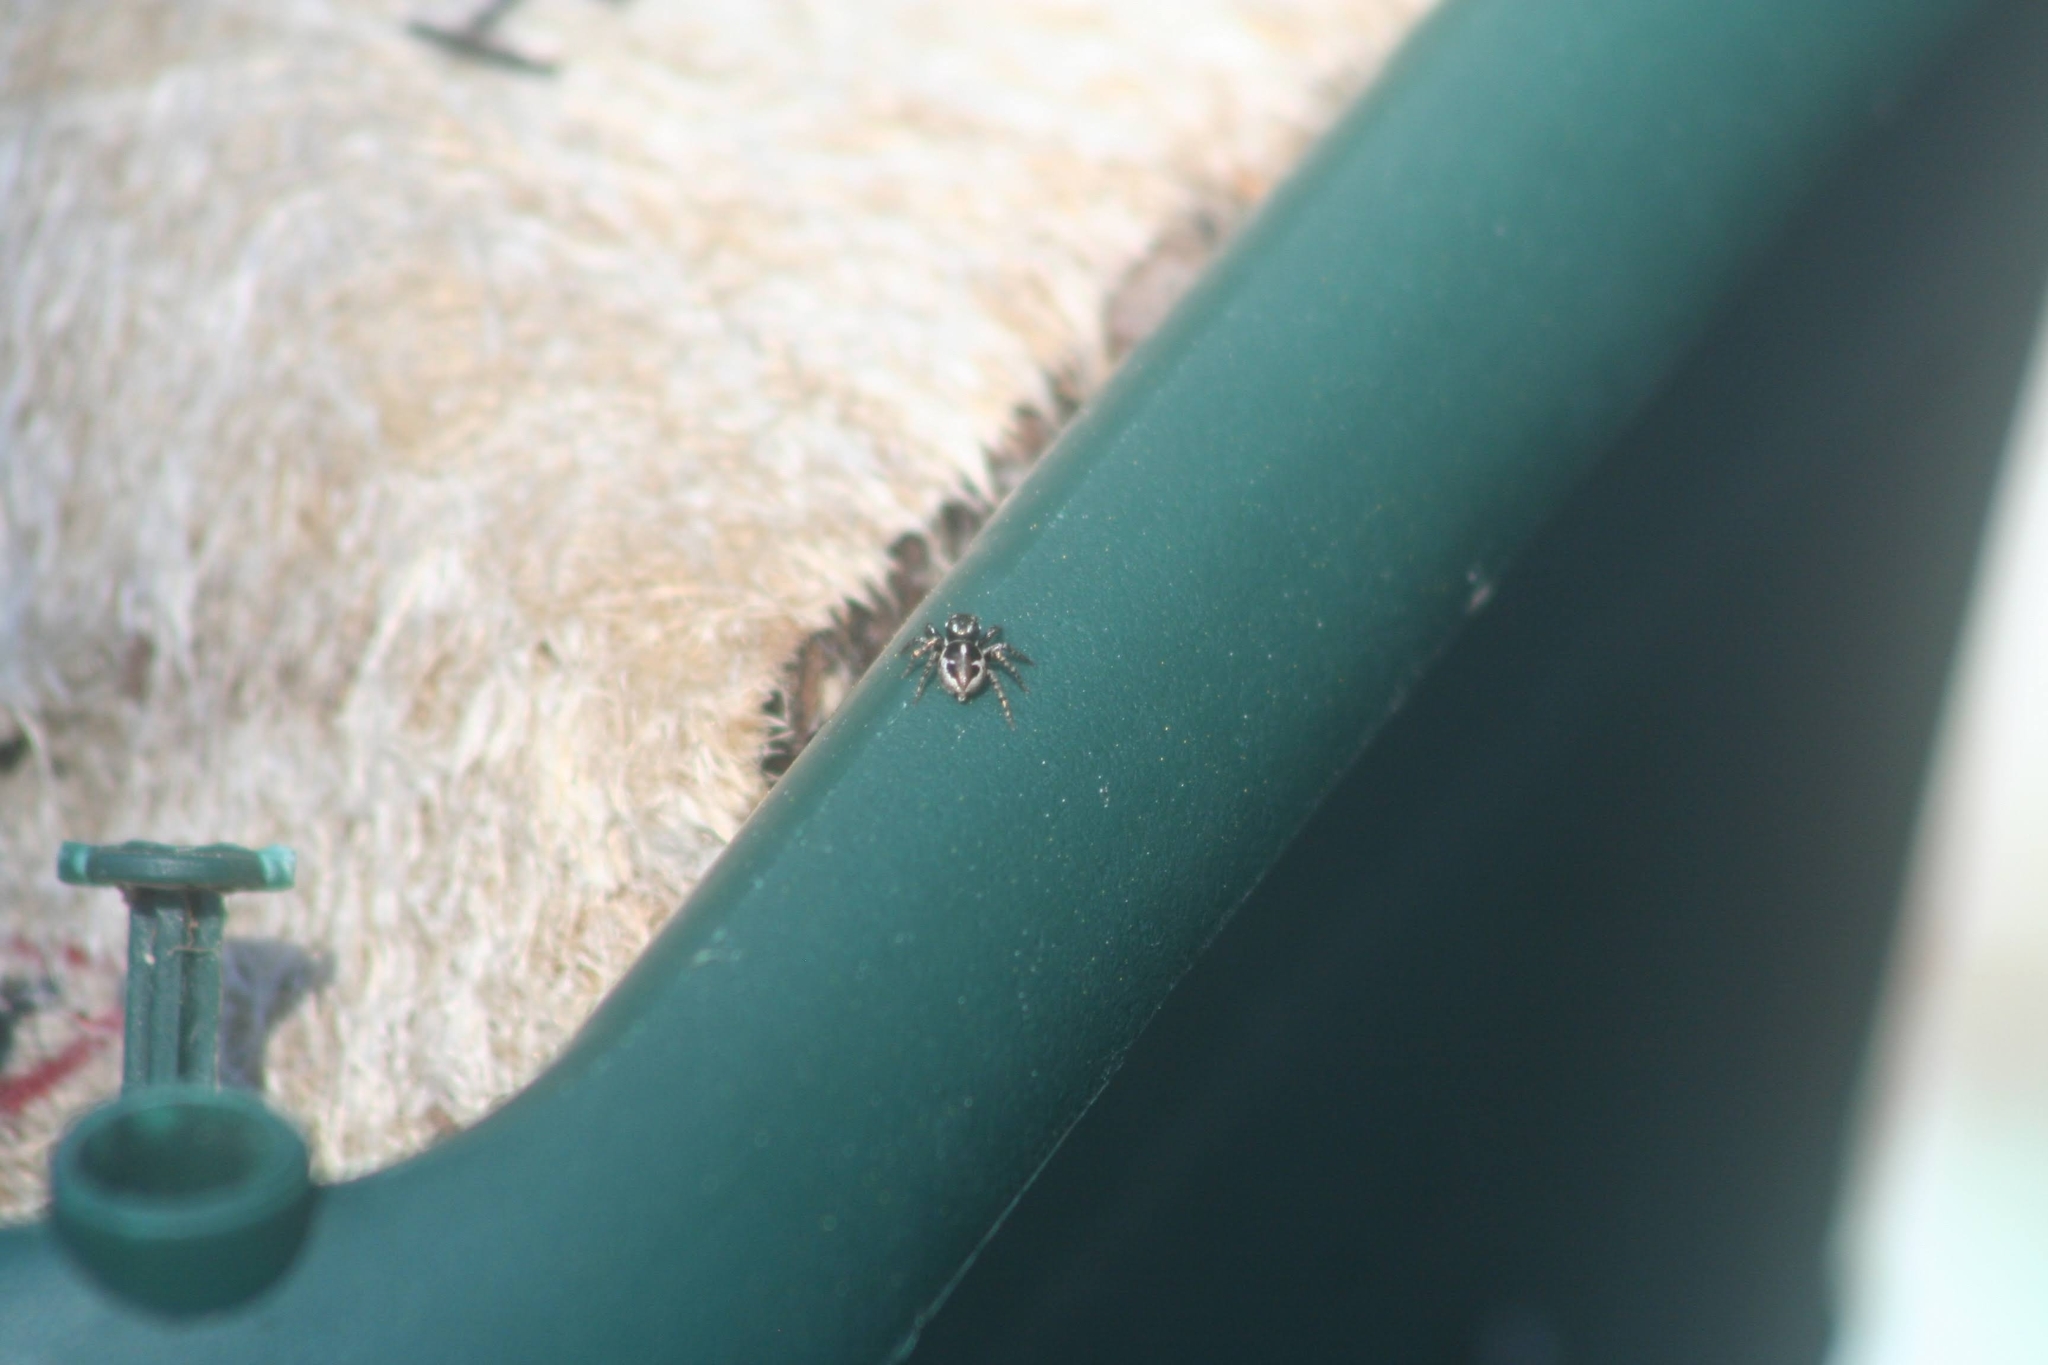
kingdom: Animalia
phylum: Arthropoda
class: Arachnida
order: Araneae
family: Salticidae
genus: Anasaitis
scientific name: Anasaitis canosa
